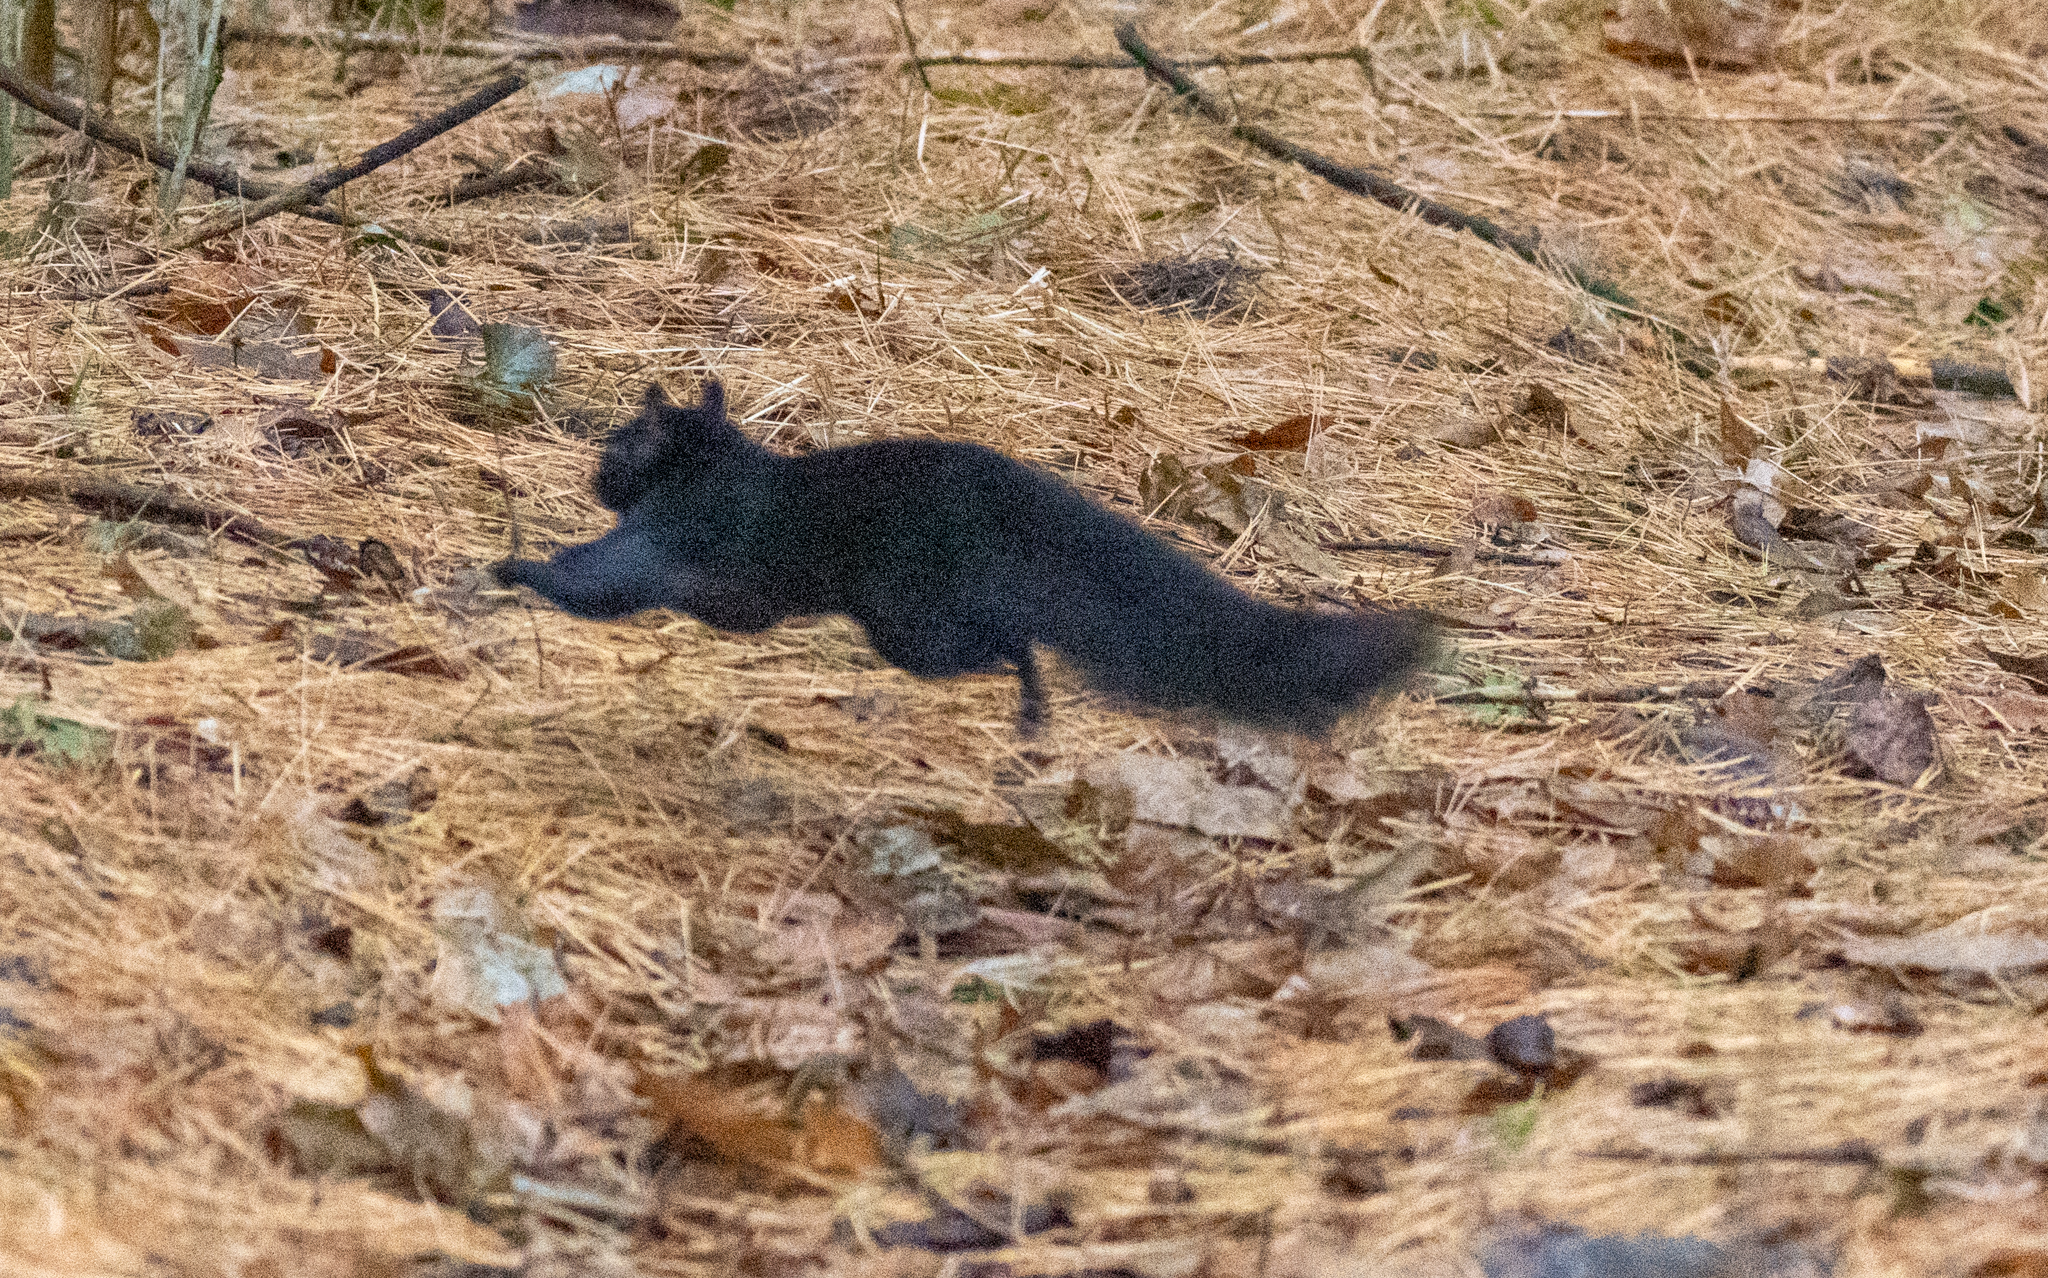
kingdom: Animalia
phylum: Chordata
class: Mammalia
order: Rodentia
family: Sciuridae
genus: Sciurus
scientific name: Sciurus carolinensis
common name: Eastern gray squirrel
